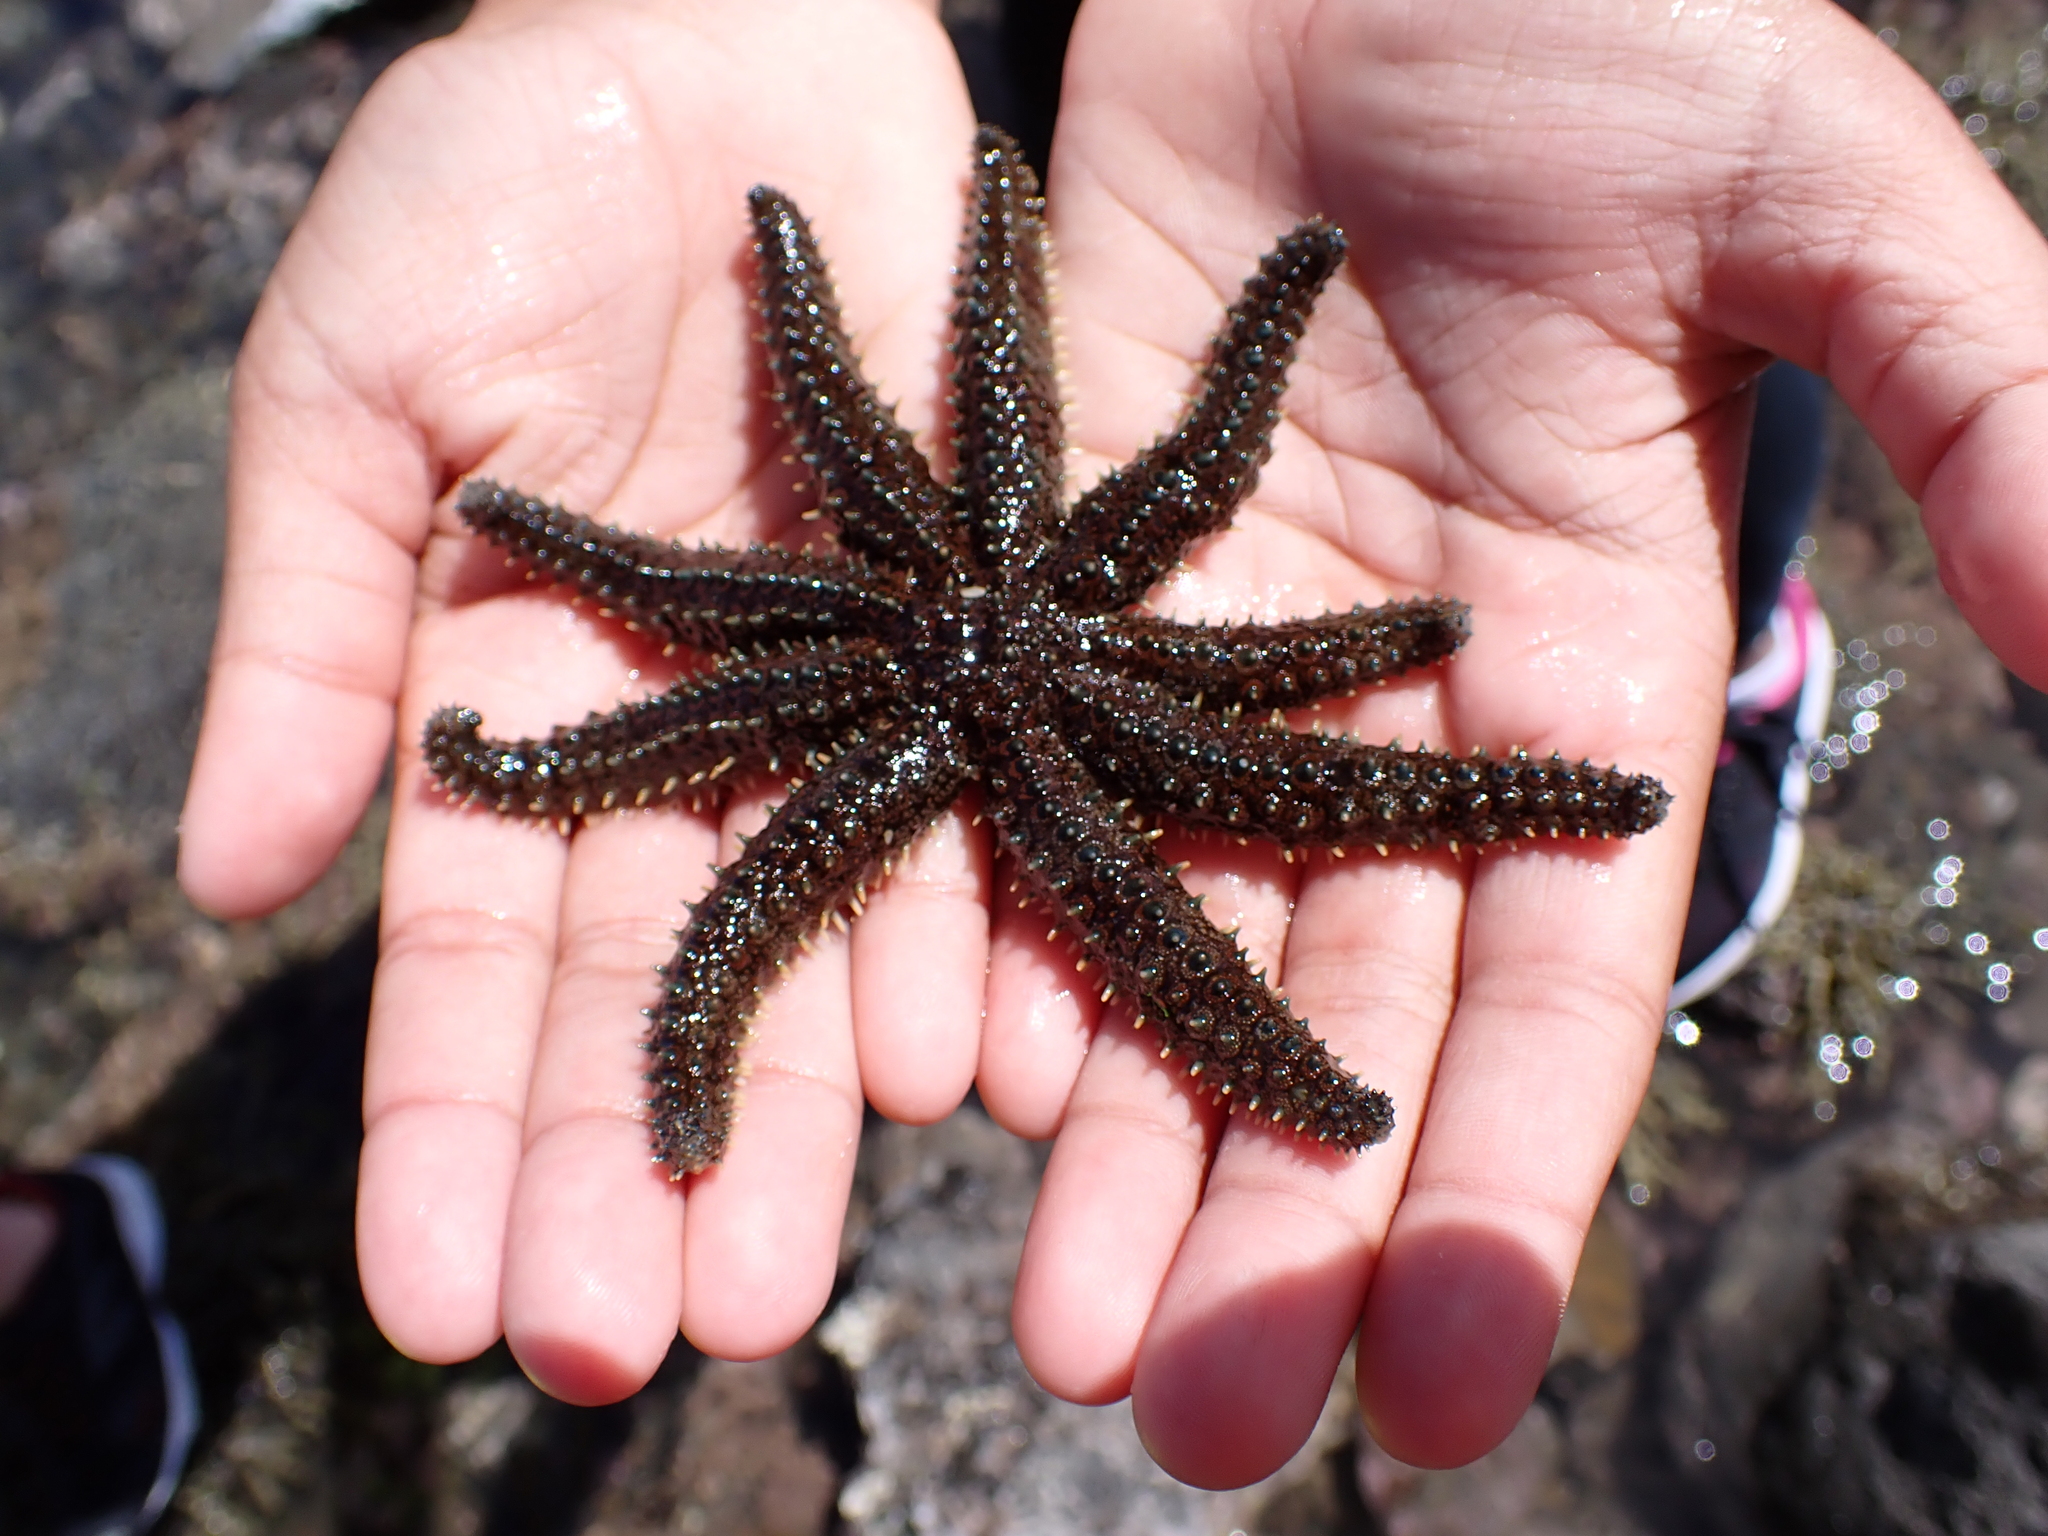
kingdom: Animalia
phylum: Echinodermata
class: Asteroidea
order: Forcipulatida
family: Asteriidae
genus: Coscinasterias
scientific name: Coscinasterias muricata
